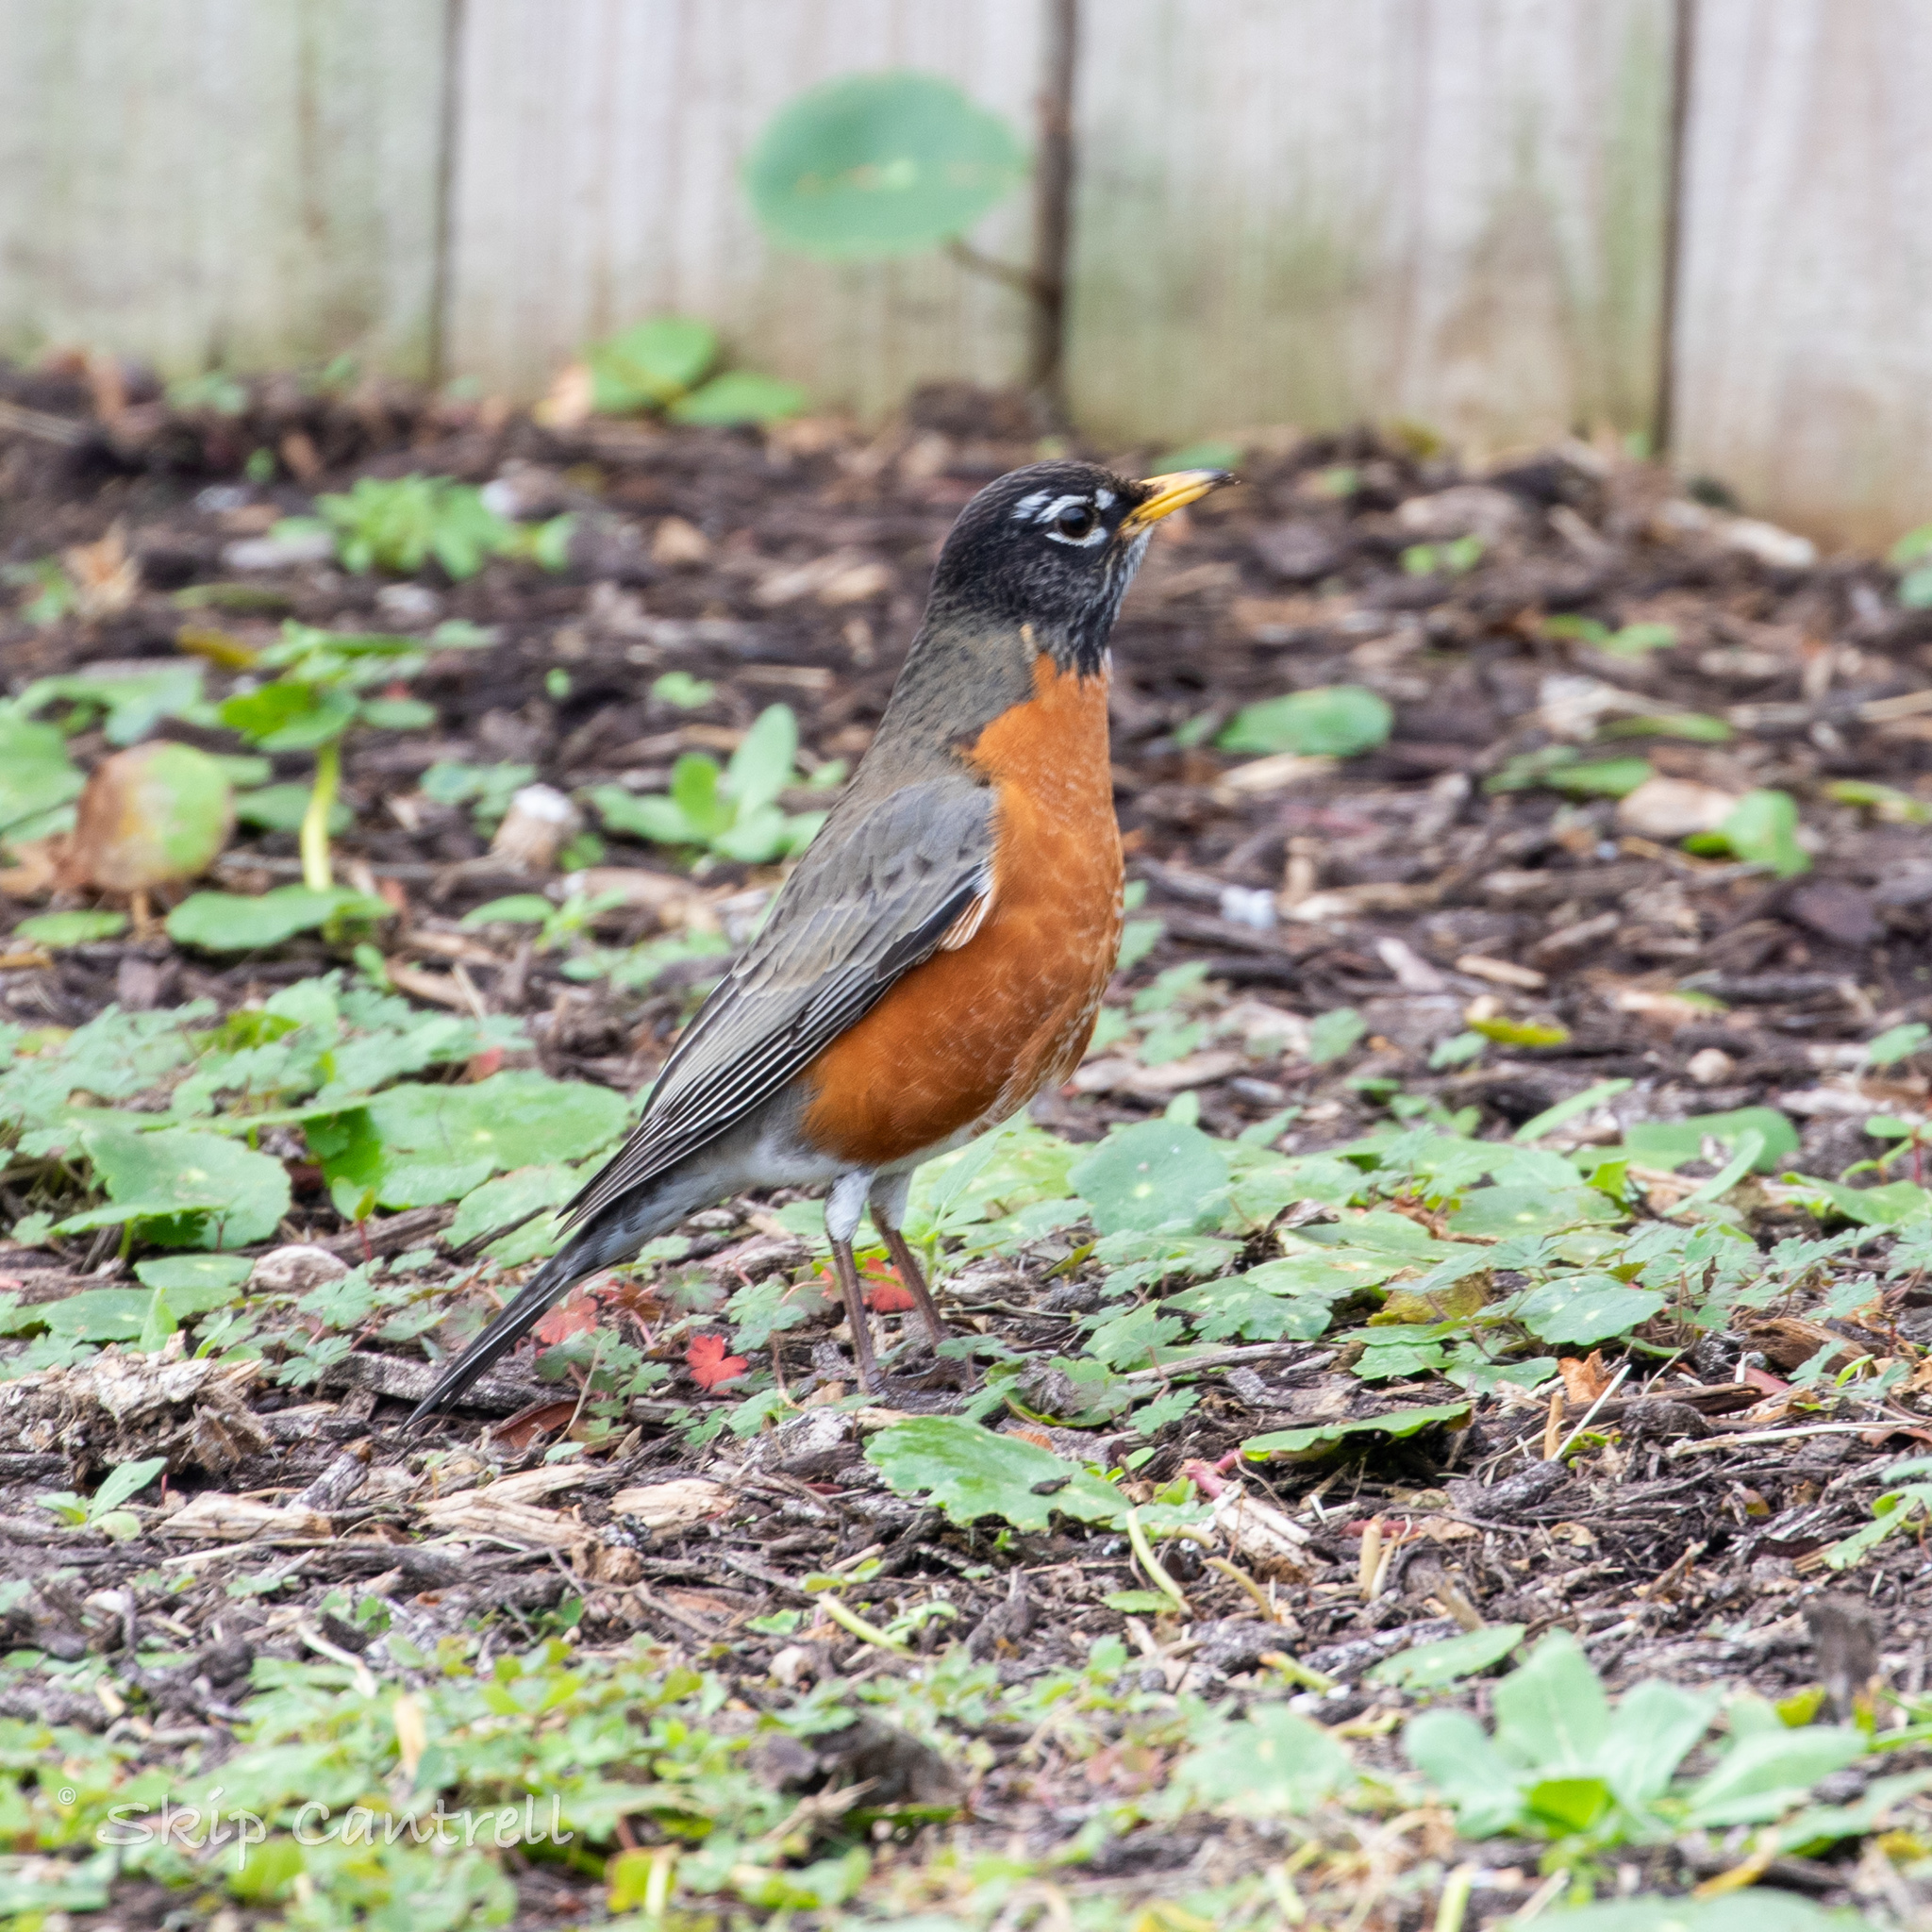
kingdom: Animalia
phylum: Chordata
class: Aves
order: Passeriformes
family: Turdidae
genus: Turdus
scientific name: Turdus migratorius
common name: American robin
